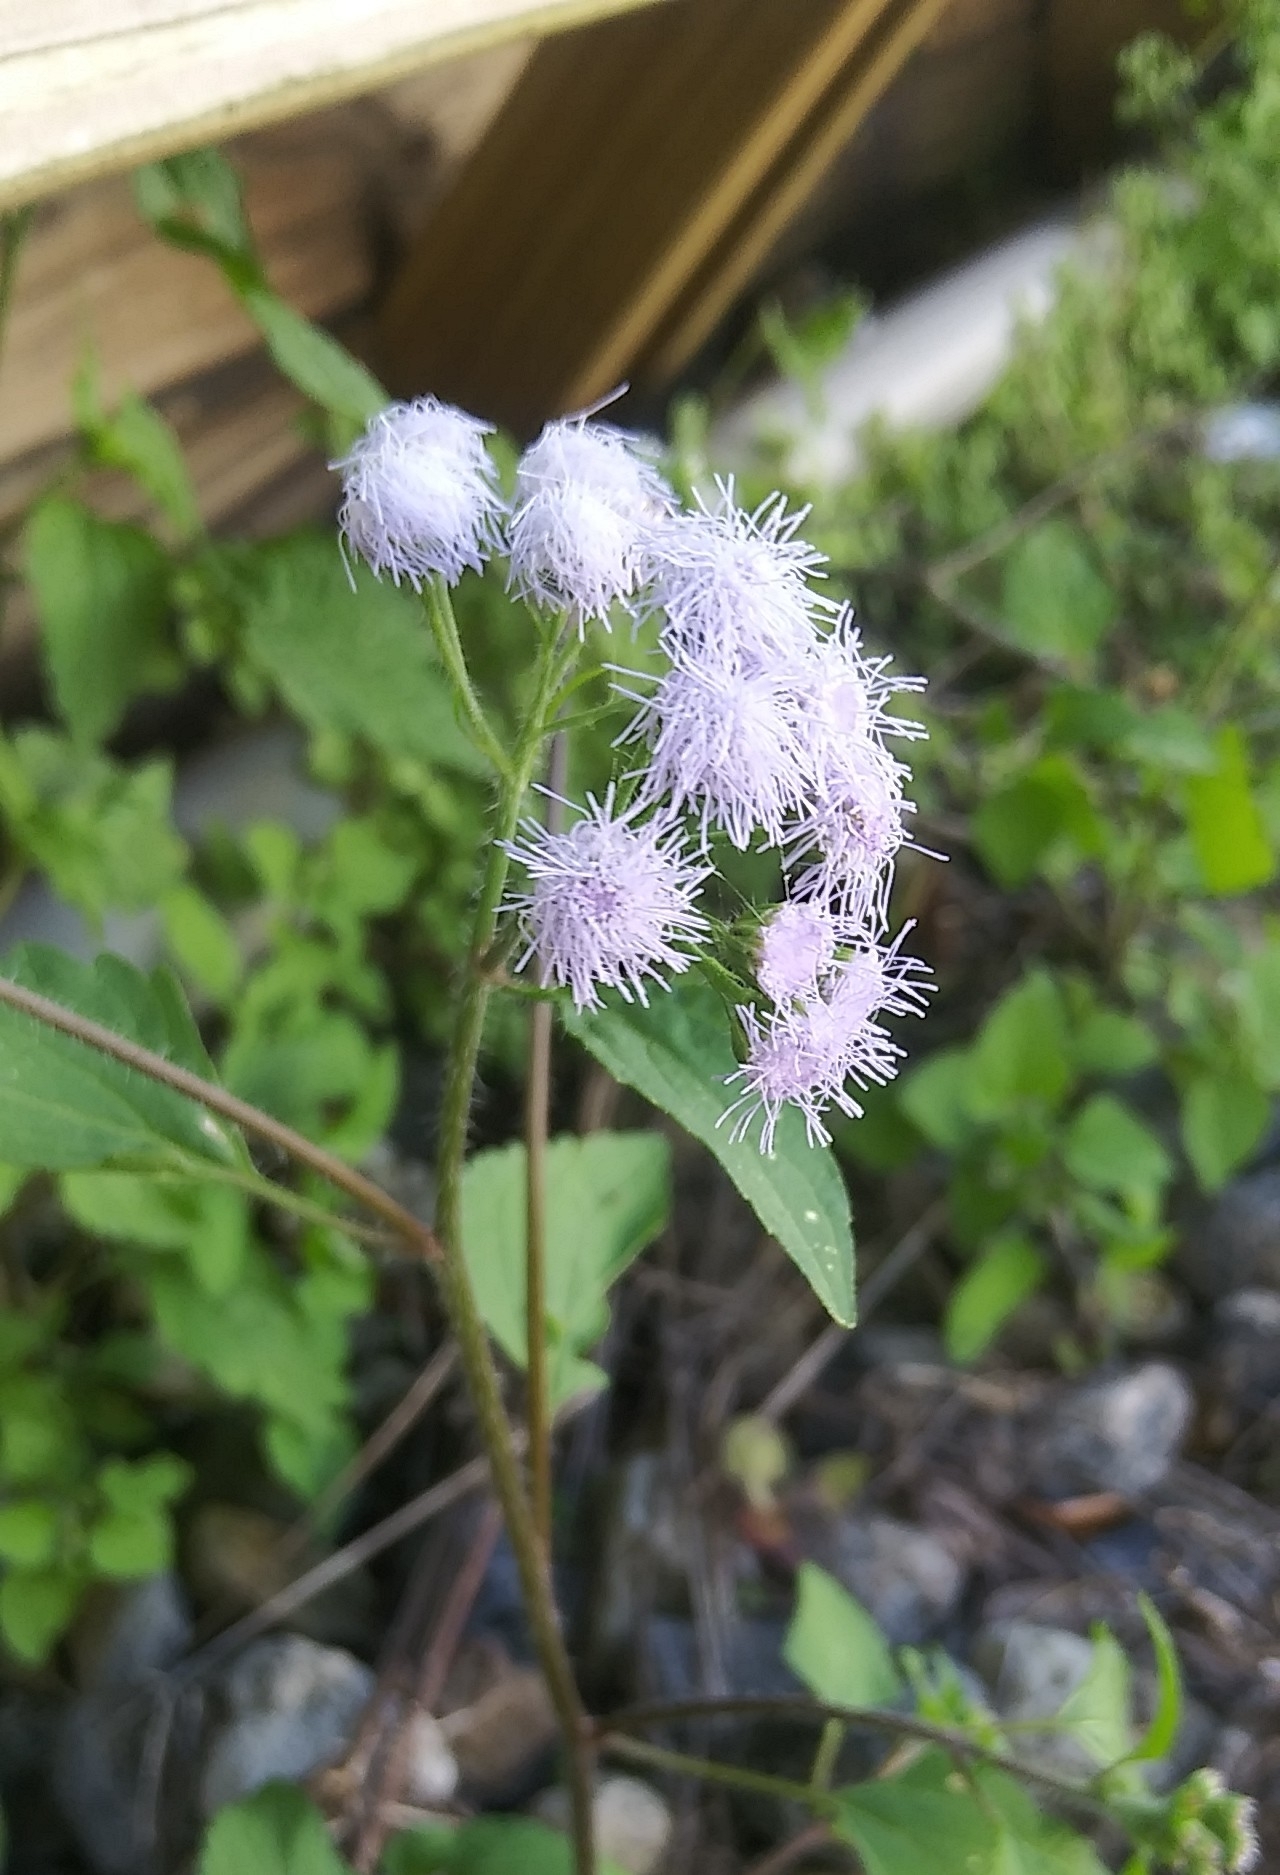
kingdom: Plantae
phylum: Tracheophyta
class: Magnoliopsida
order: Asterales
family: Asteraceae
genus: Ageratum
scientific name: Ageratum houstonianum
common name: Bluemink
